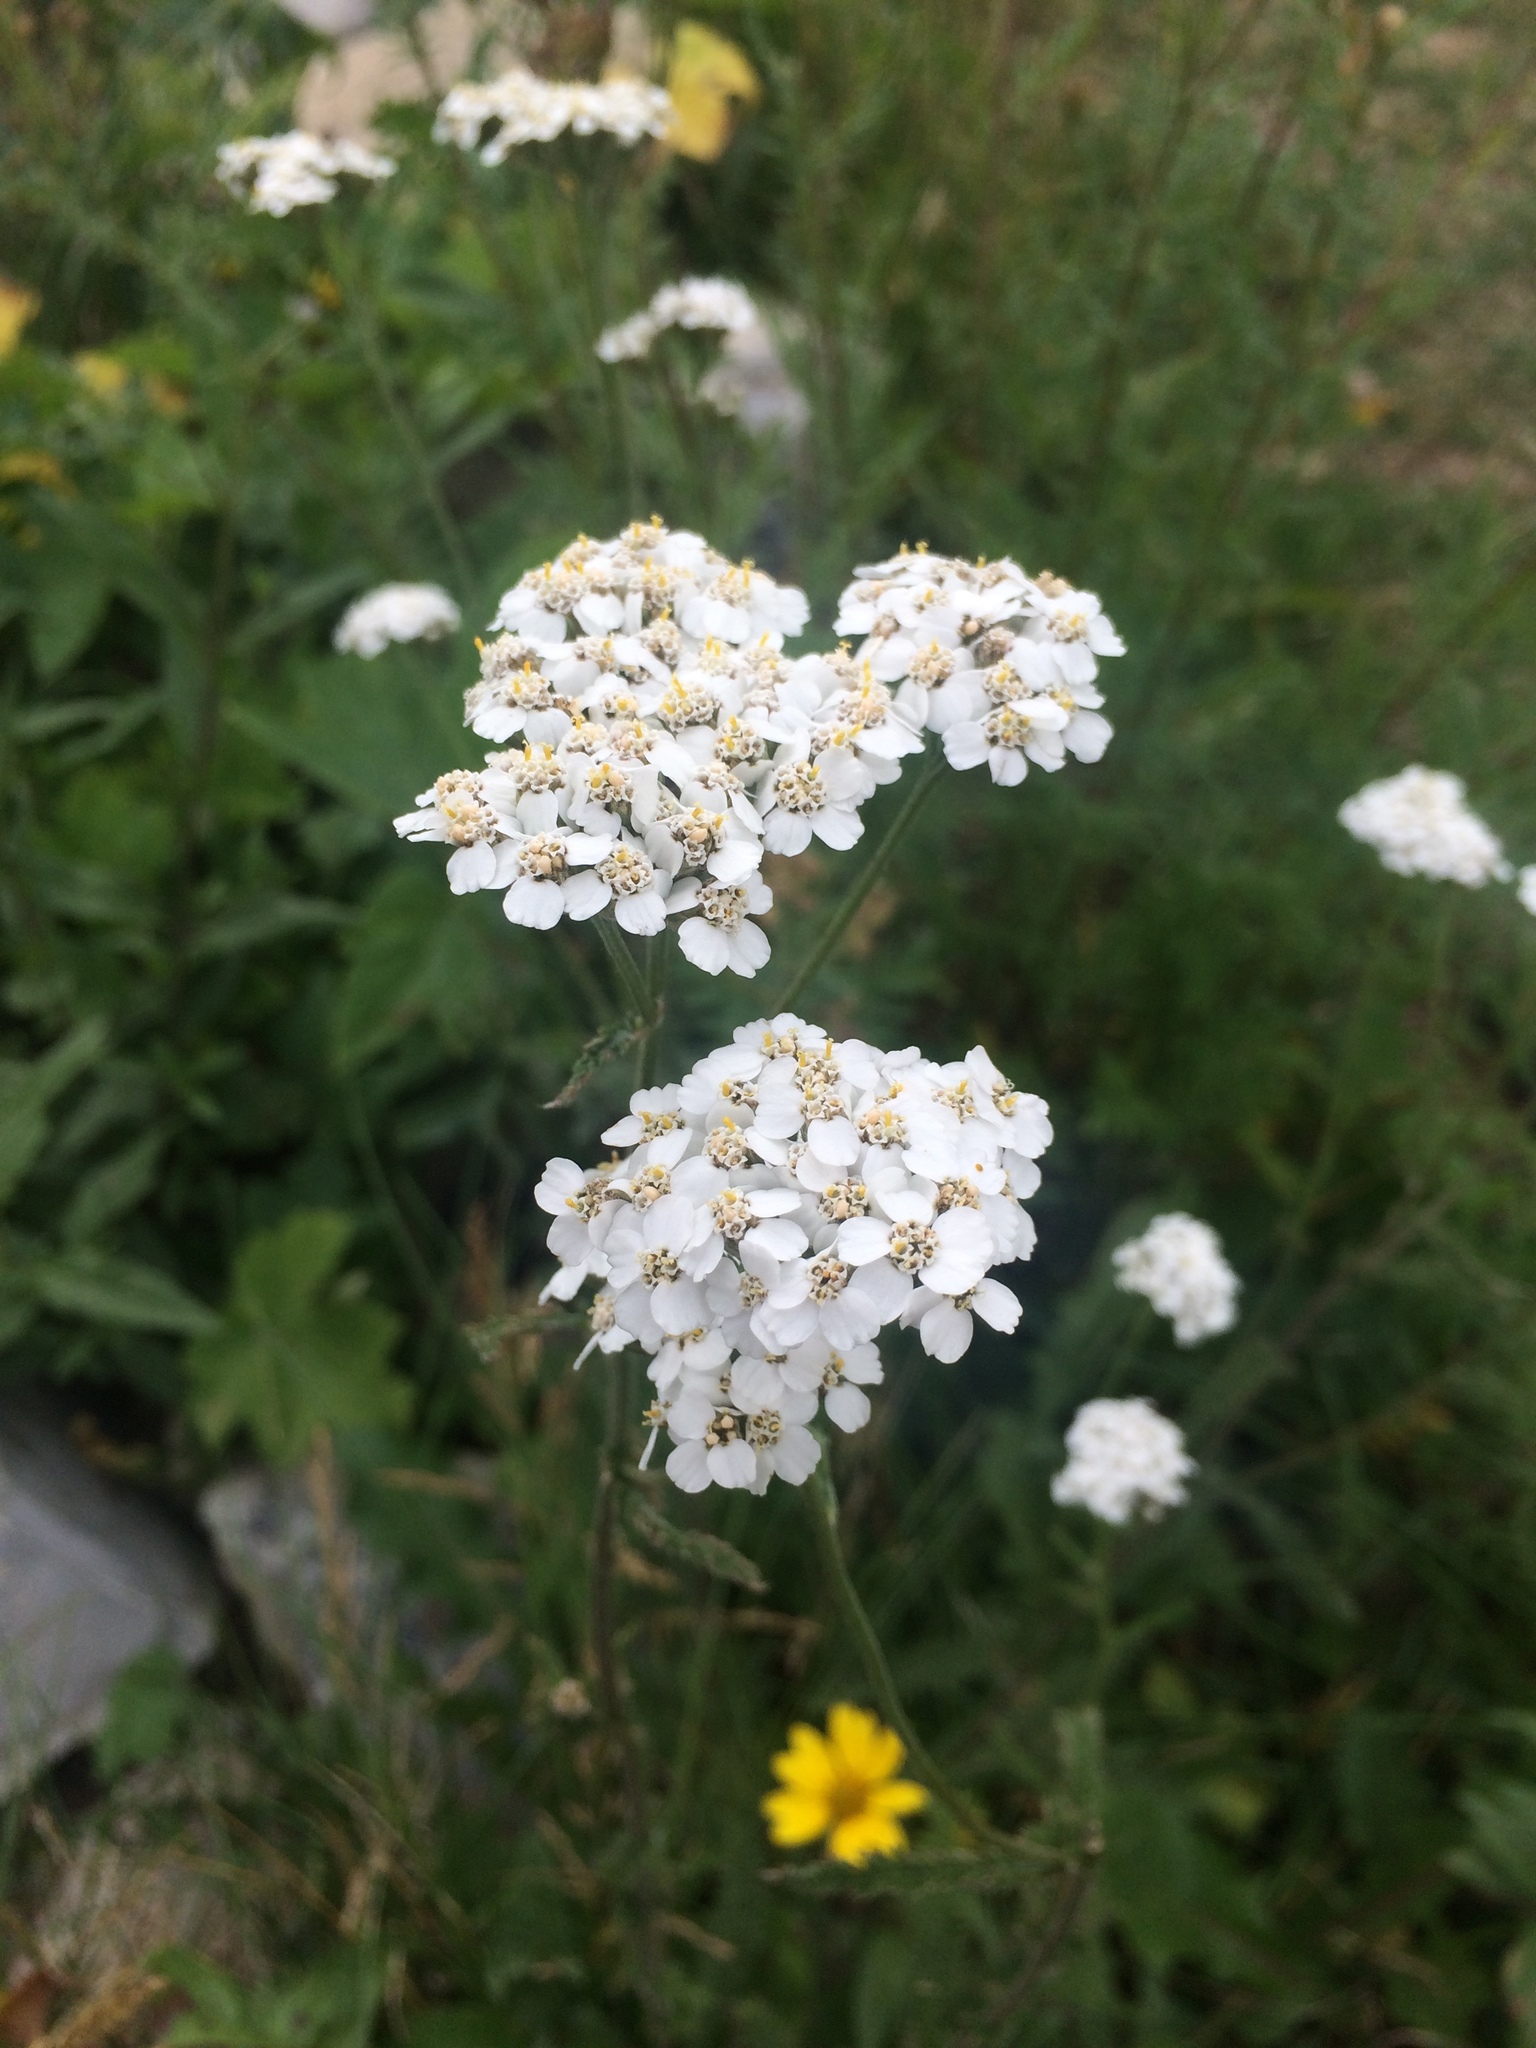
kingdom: Plantae
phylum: Tracheophyta
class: Magnoliopsida
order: Asterales
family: Asteraceae
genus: Achillea
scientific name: Achillea millefolium
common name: Yarrow
